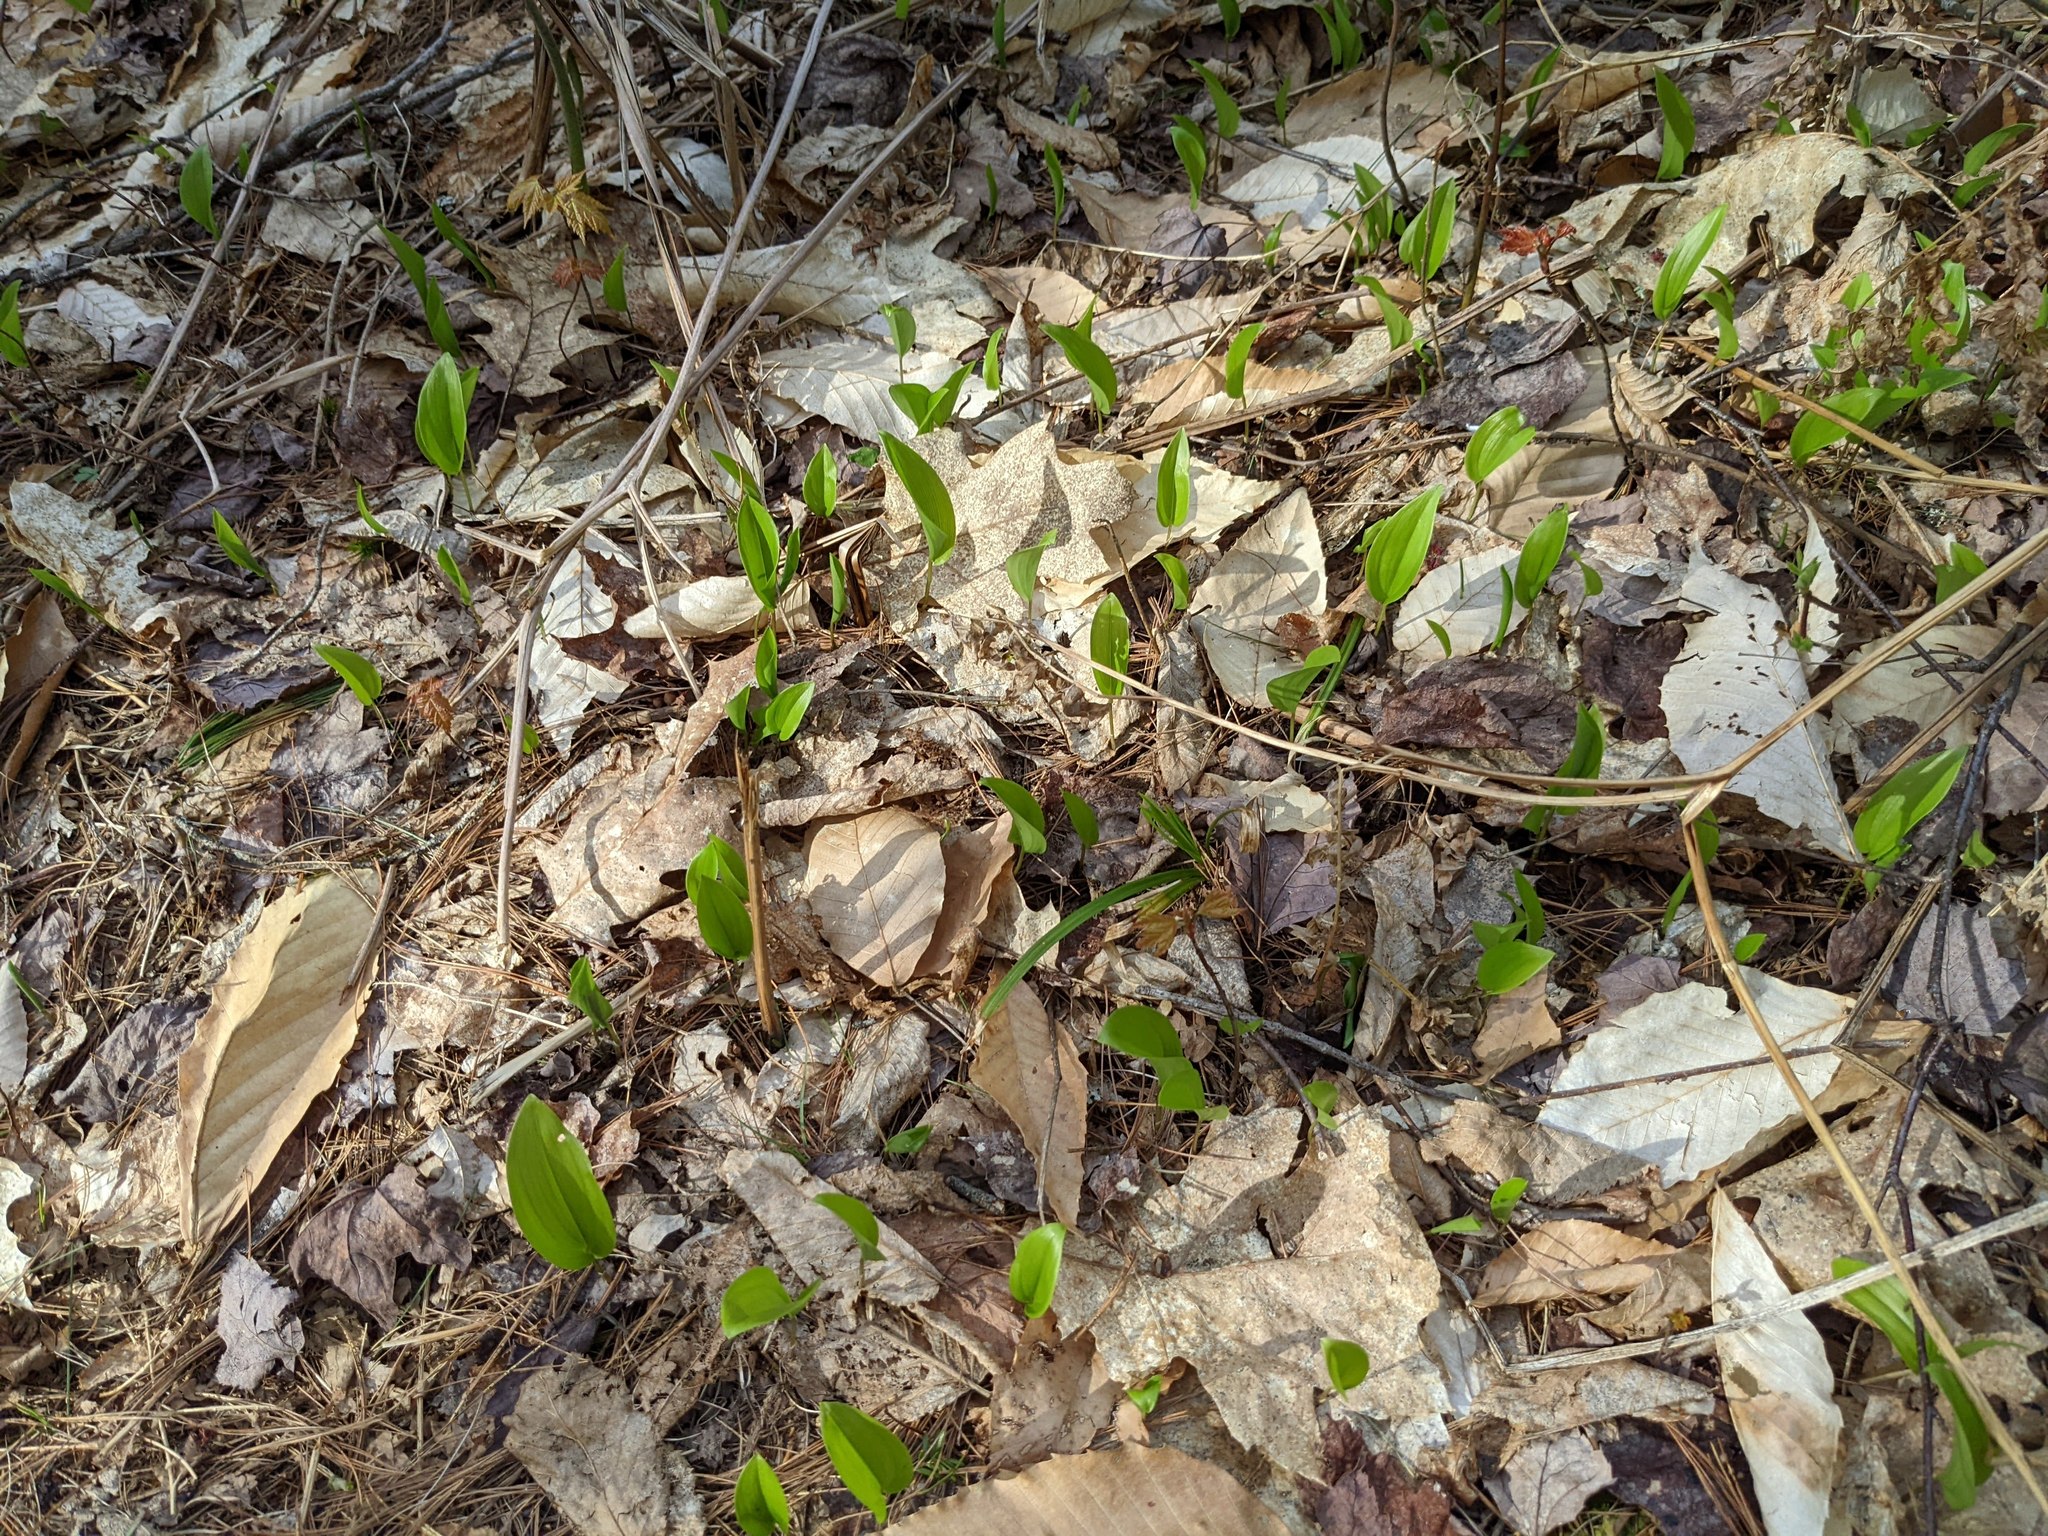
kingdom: Plantae
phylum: Tracheophyta
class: Magnoliopsida
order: Fagales
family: Fagaceae
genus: Fagus
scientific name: Fagus grandifolia
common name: American beech
